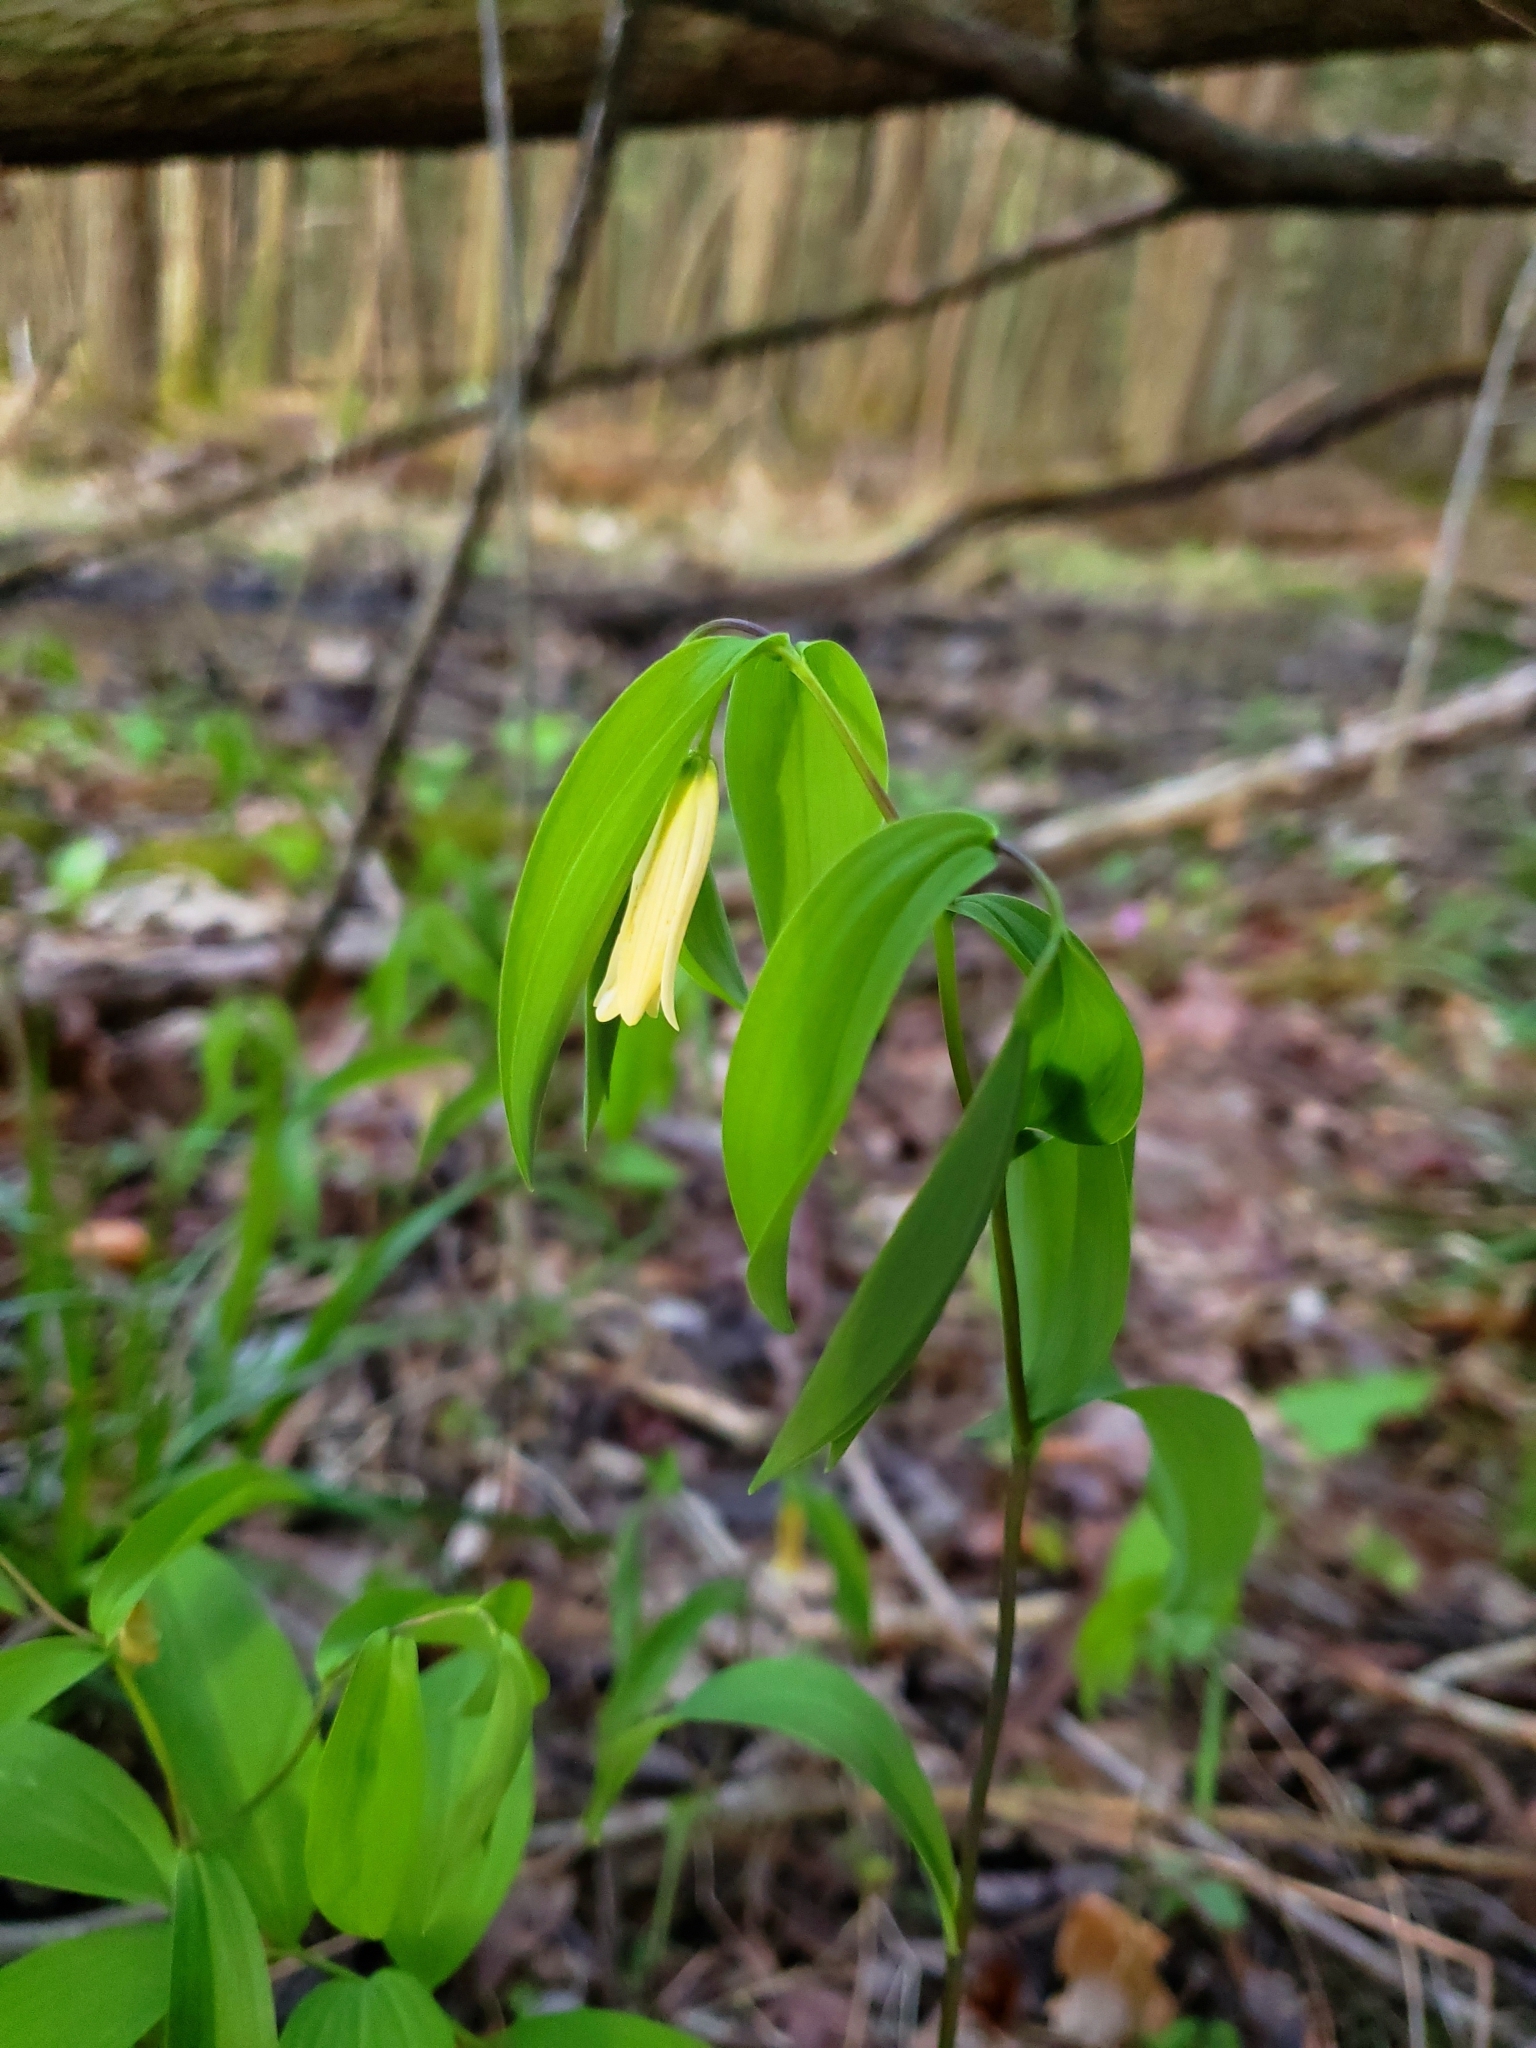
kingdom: Plantae
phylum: Tracheophyta
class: Liliopsida
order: Liliales
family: Colchicaceae
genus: Uvularia
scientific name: Uvularia sessilifolia
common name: Straw-lily
